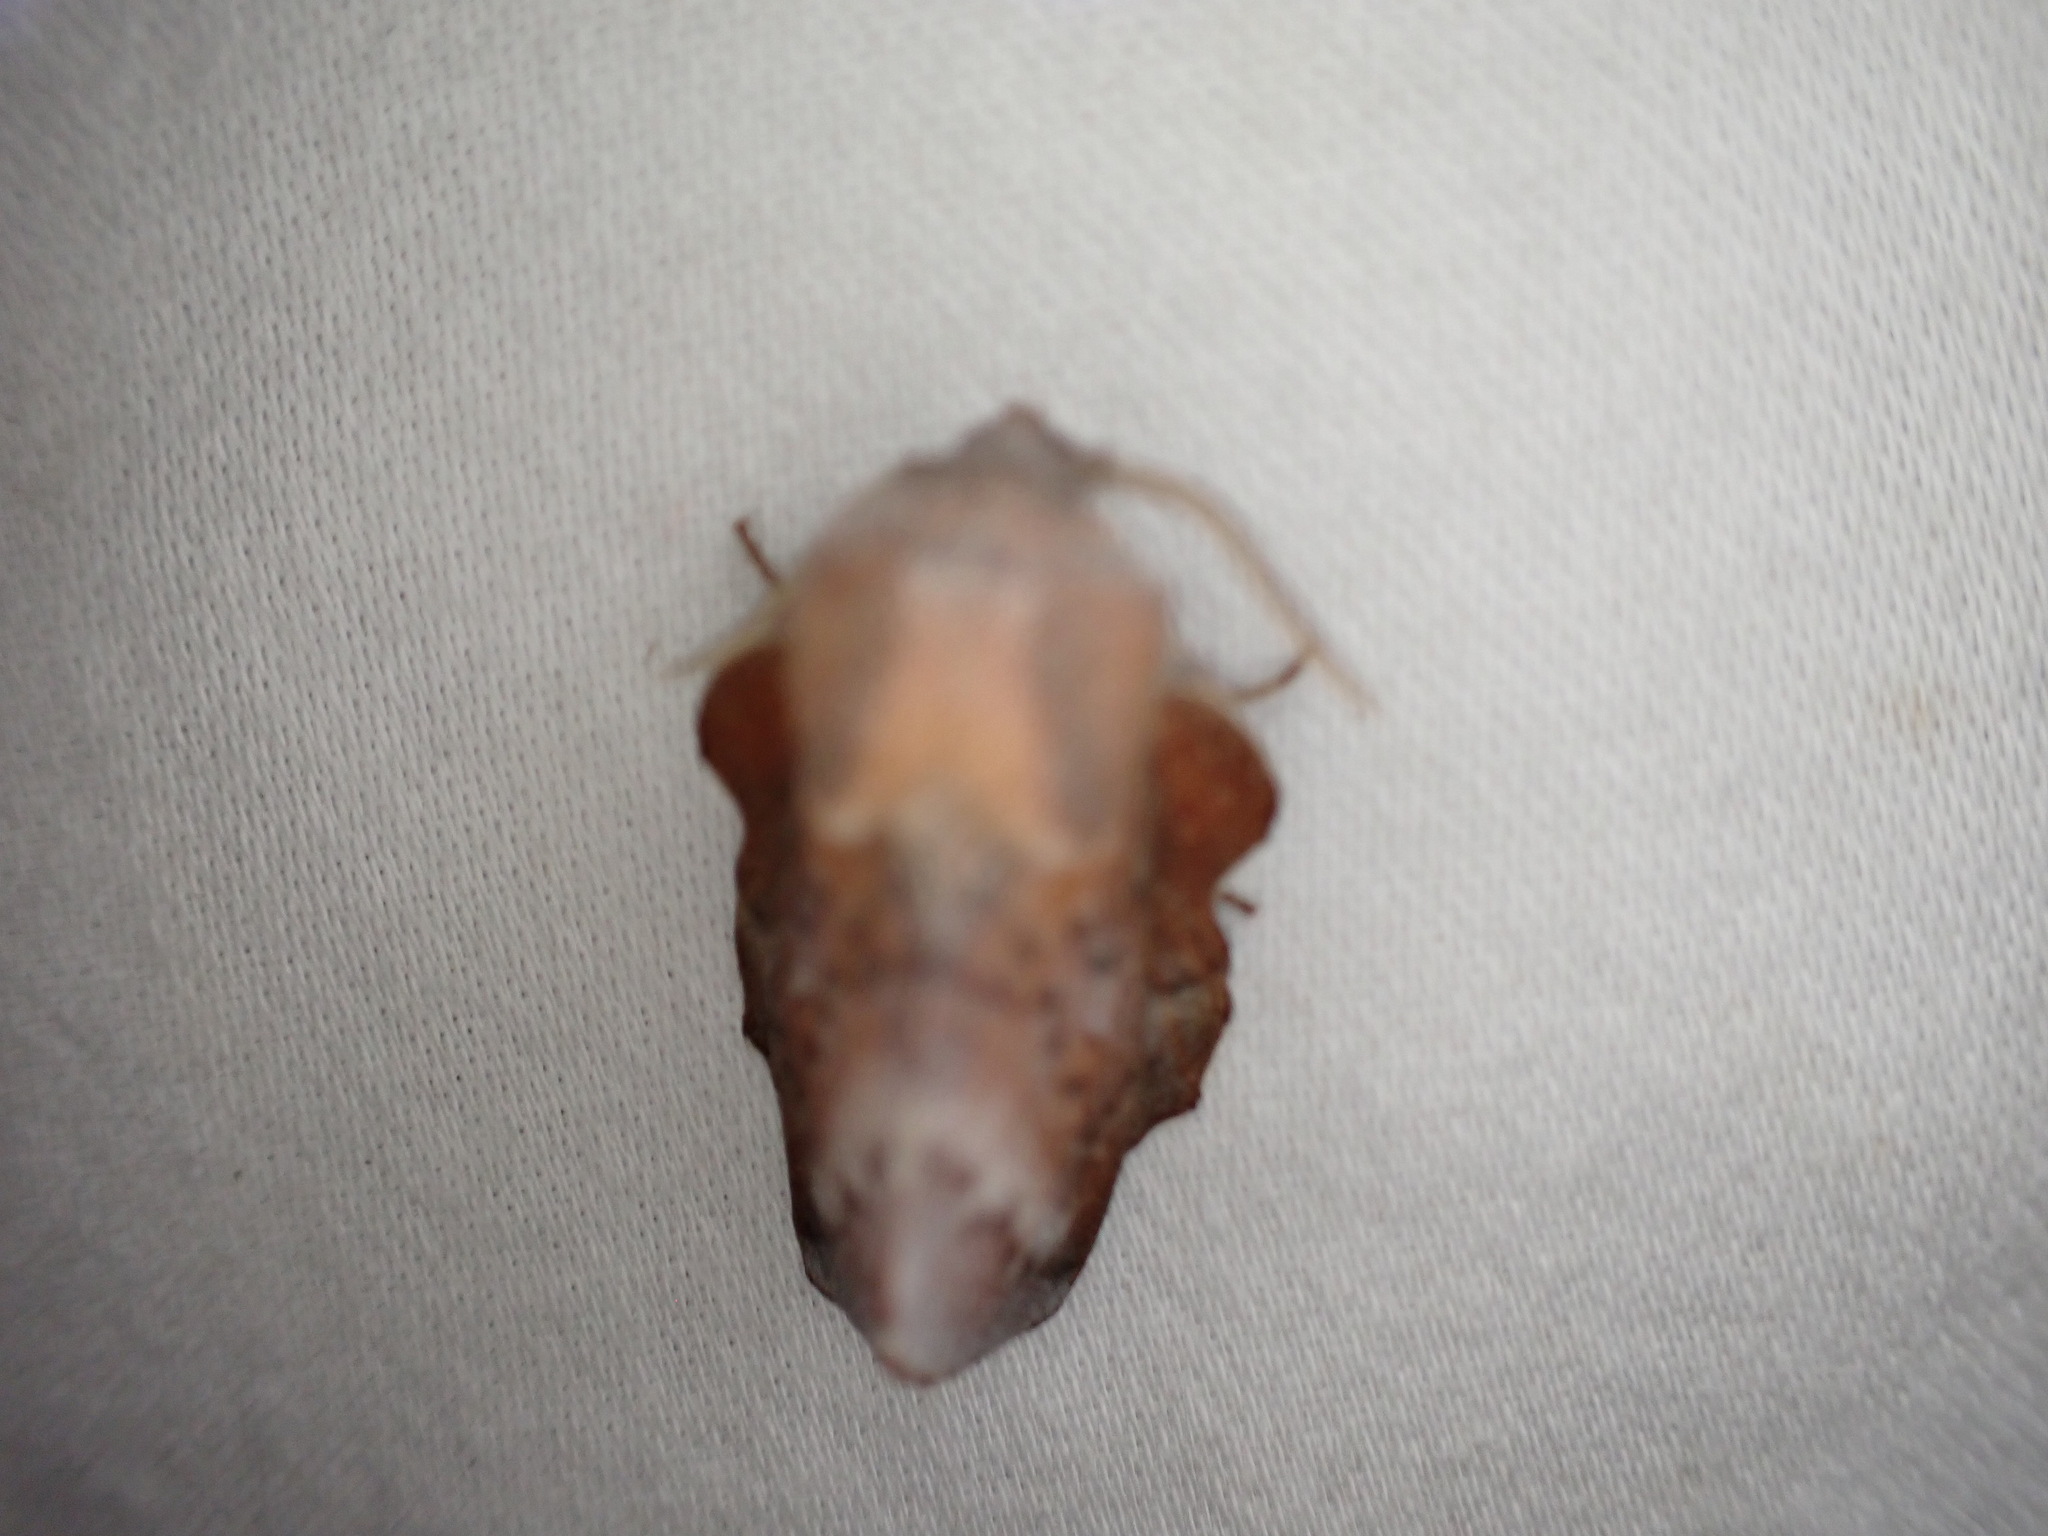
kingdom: Animalia
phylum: Arthropoda
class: Insecta
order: Lepidoptera
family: Lasiocampidae
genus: Phyllodesma
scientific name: Phyllodesma americana
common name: American lappet moth
